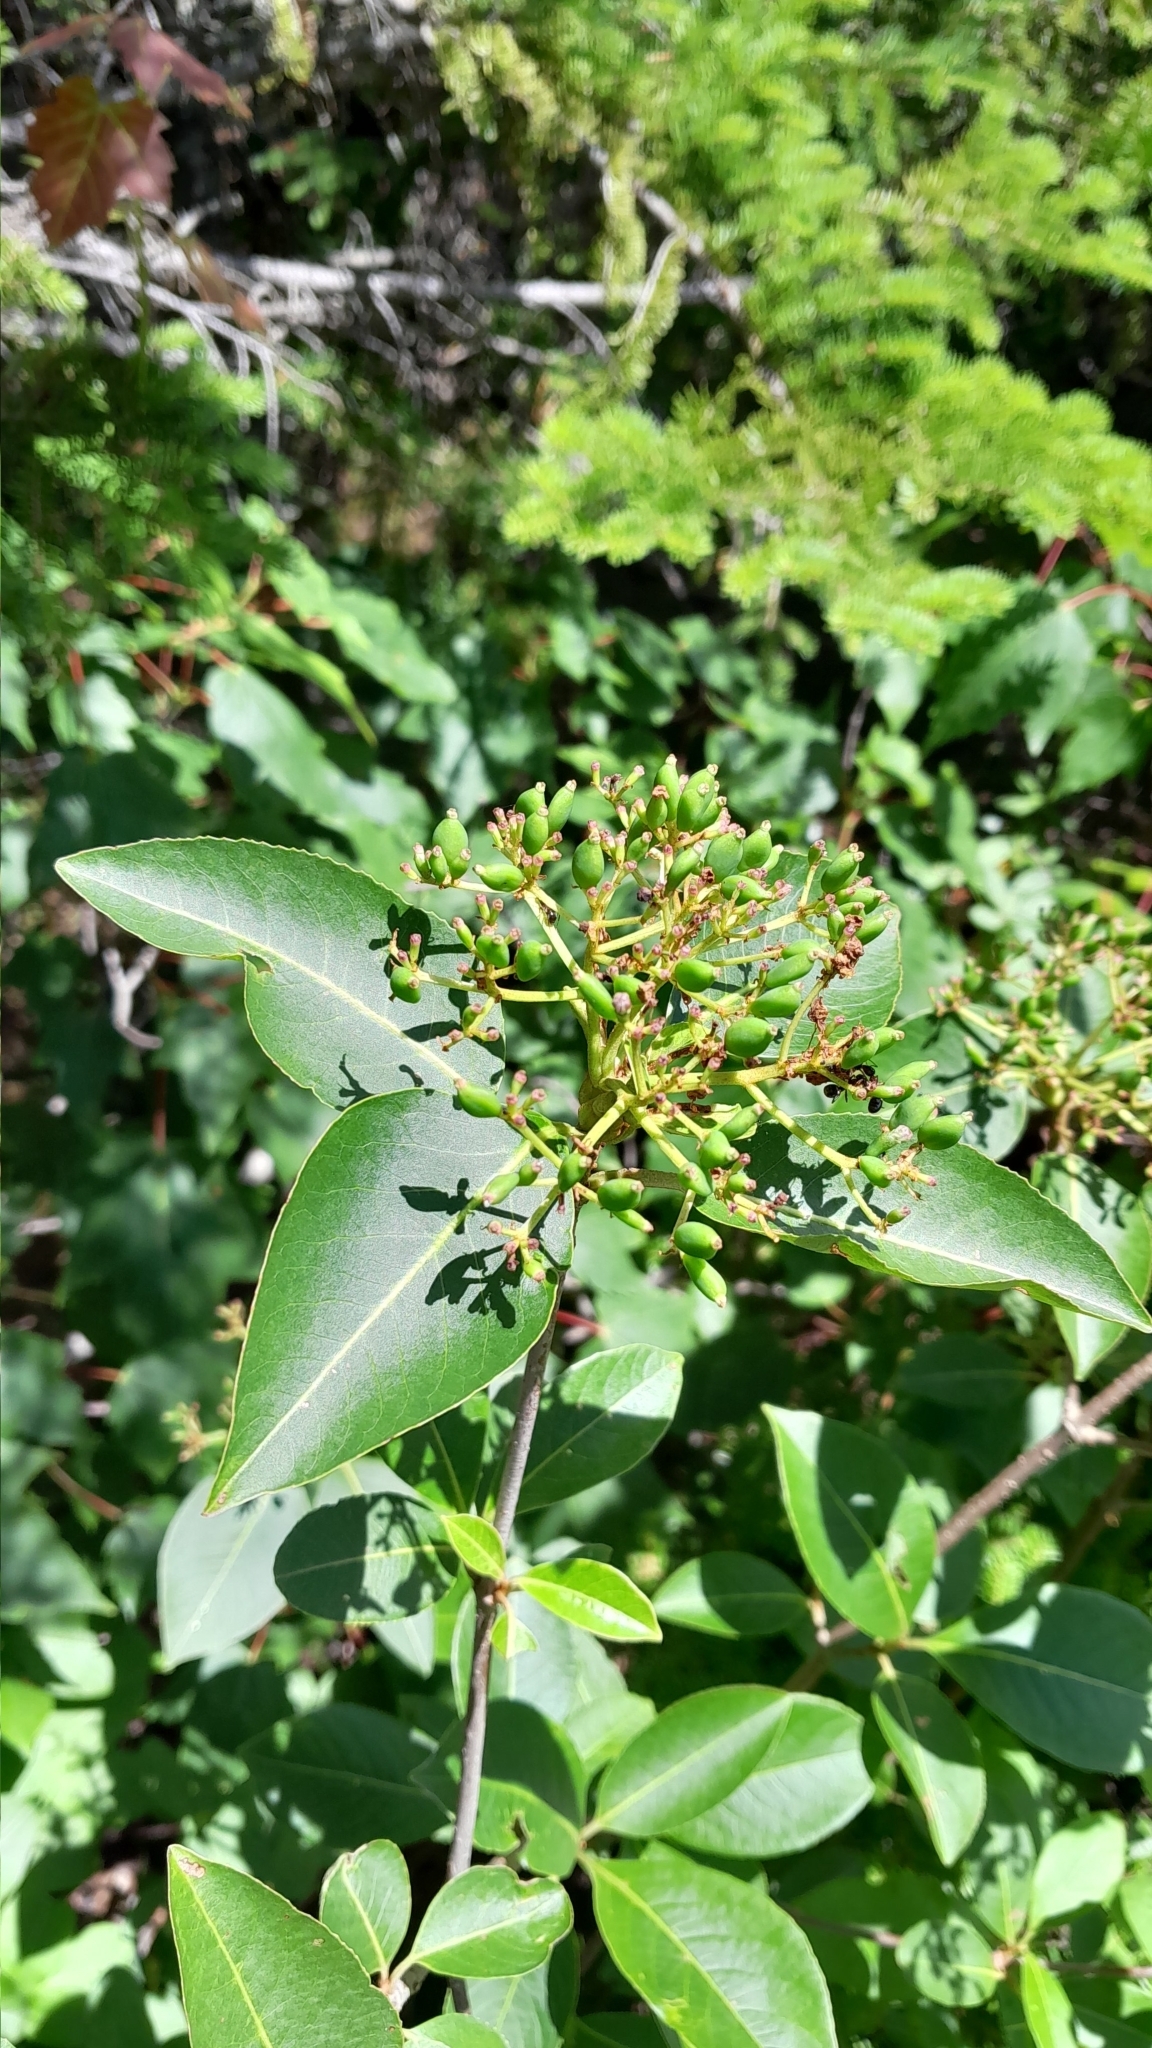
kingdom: Plantae
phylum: Tracheophyta
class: Magnoliopsida
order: Dipsacales
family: Viburnaceae
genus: Viburnum
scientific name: Viburnum cassinoides
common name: Swamp haw
